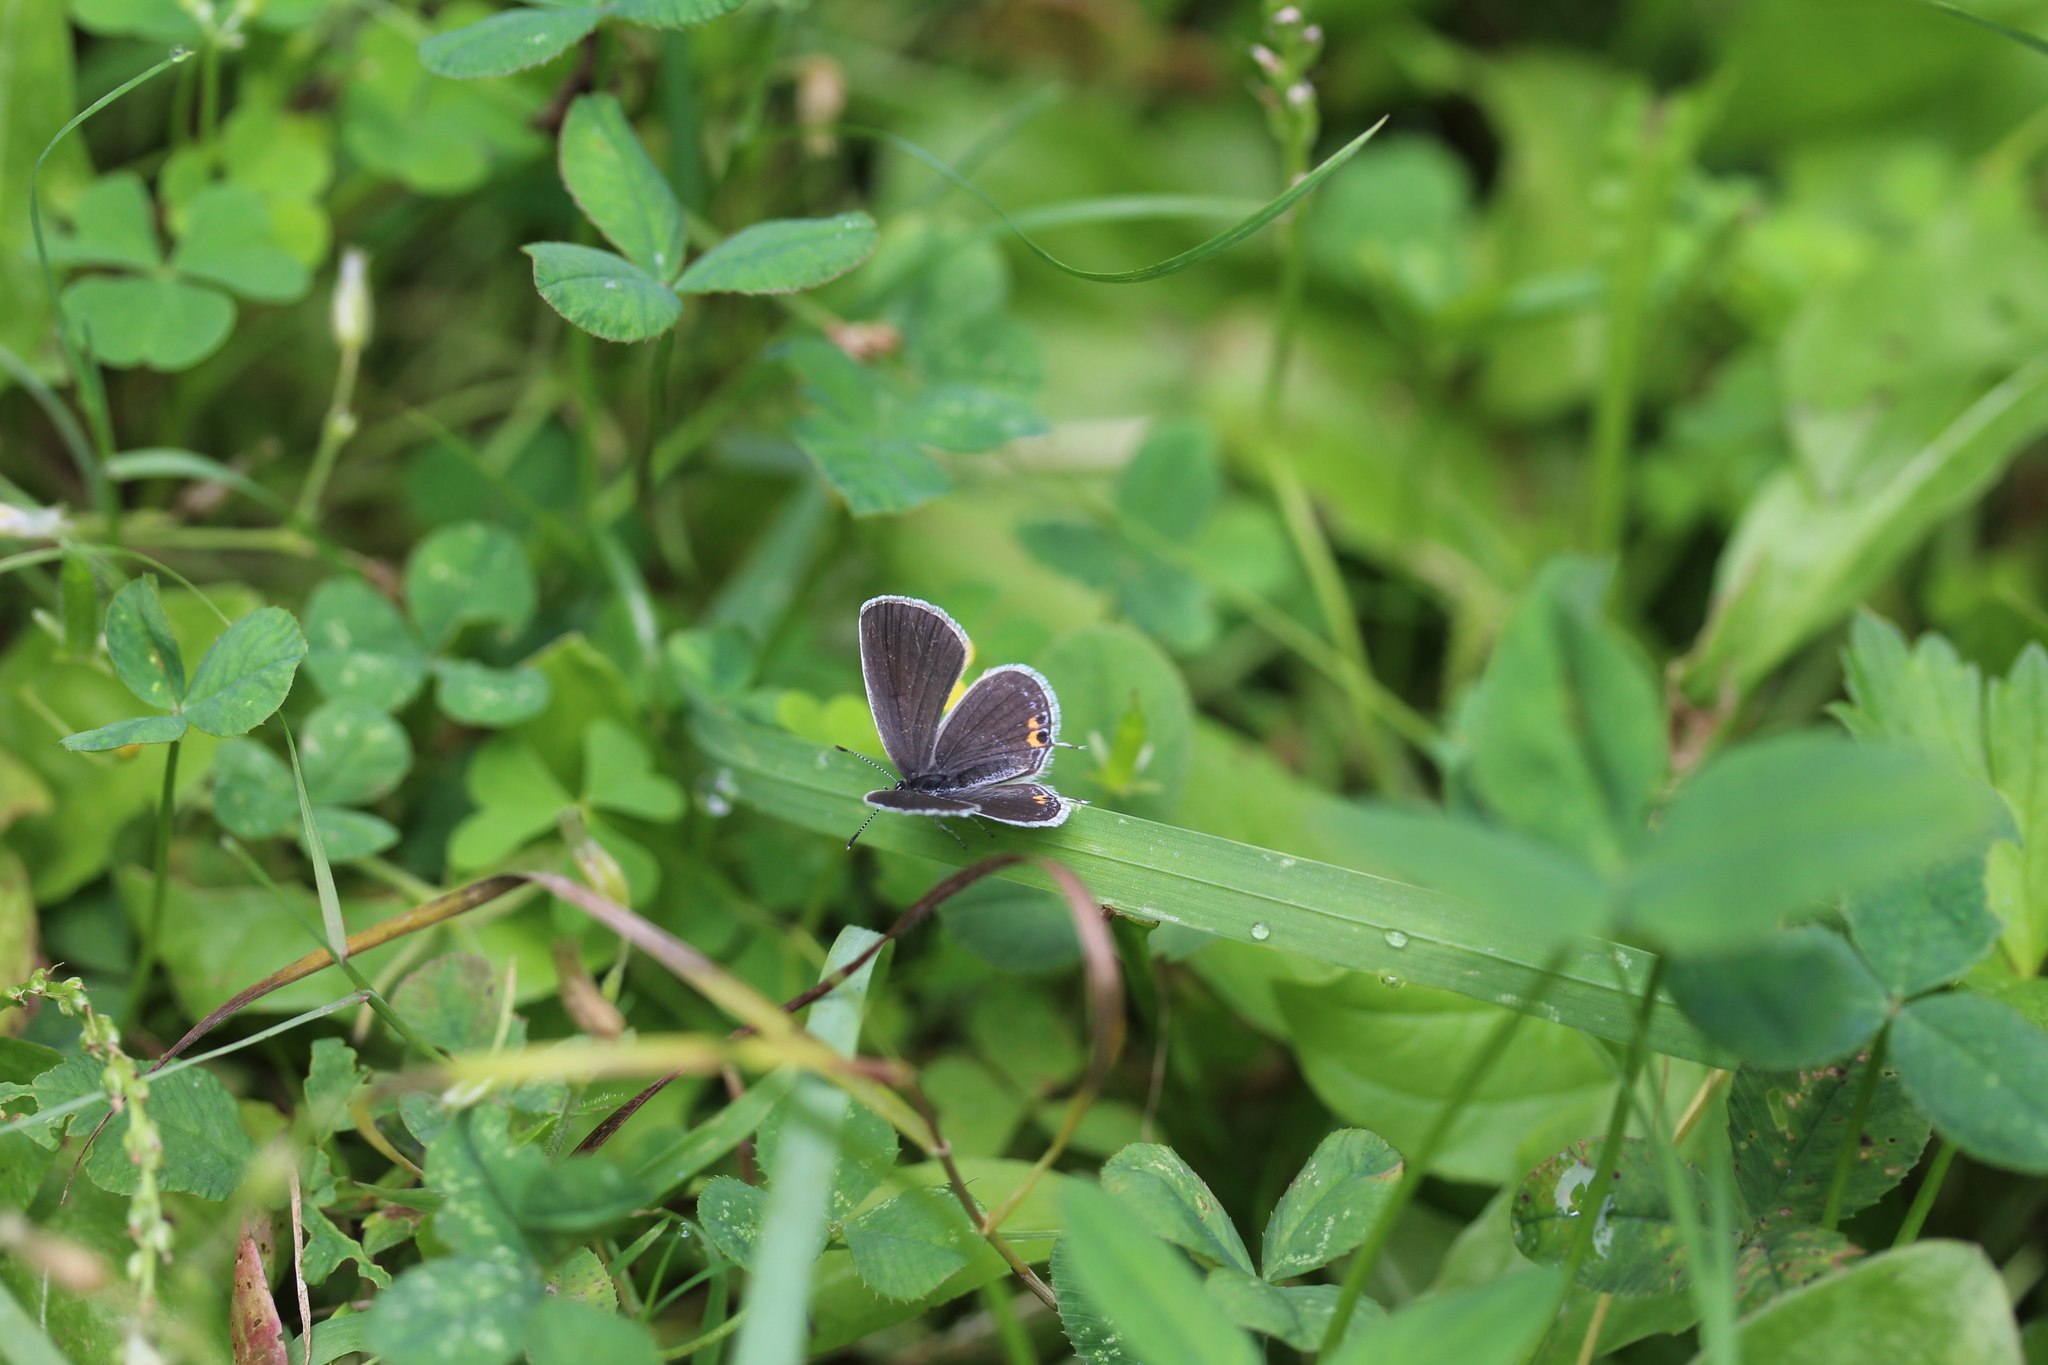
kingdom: Animalia
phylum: Arthropoda
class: Insecta
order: Lepidoptera
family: Lycaenidae
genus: Elkalyce
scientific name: Elkalyce comyntas
